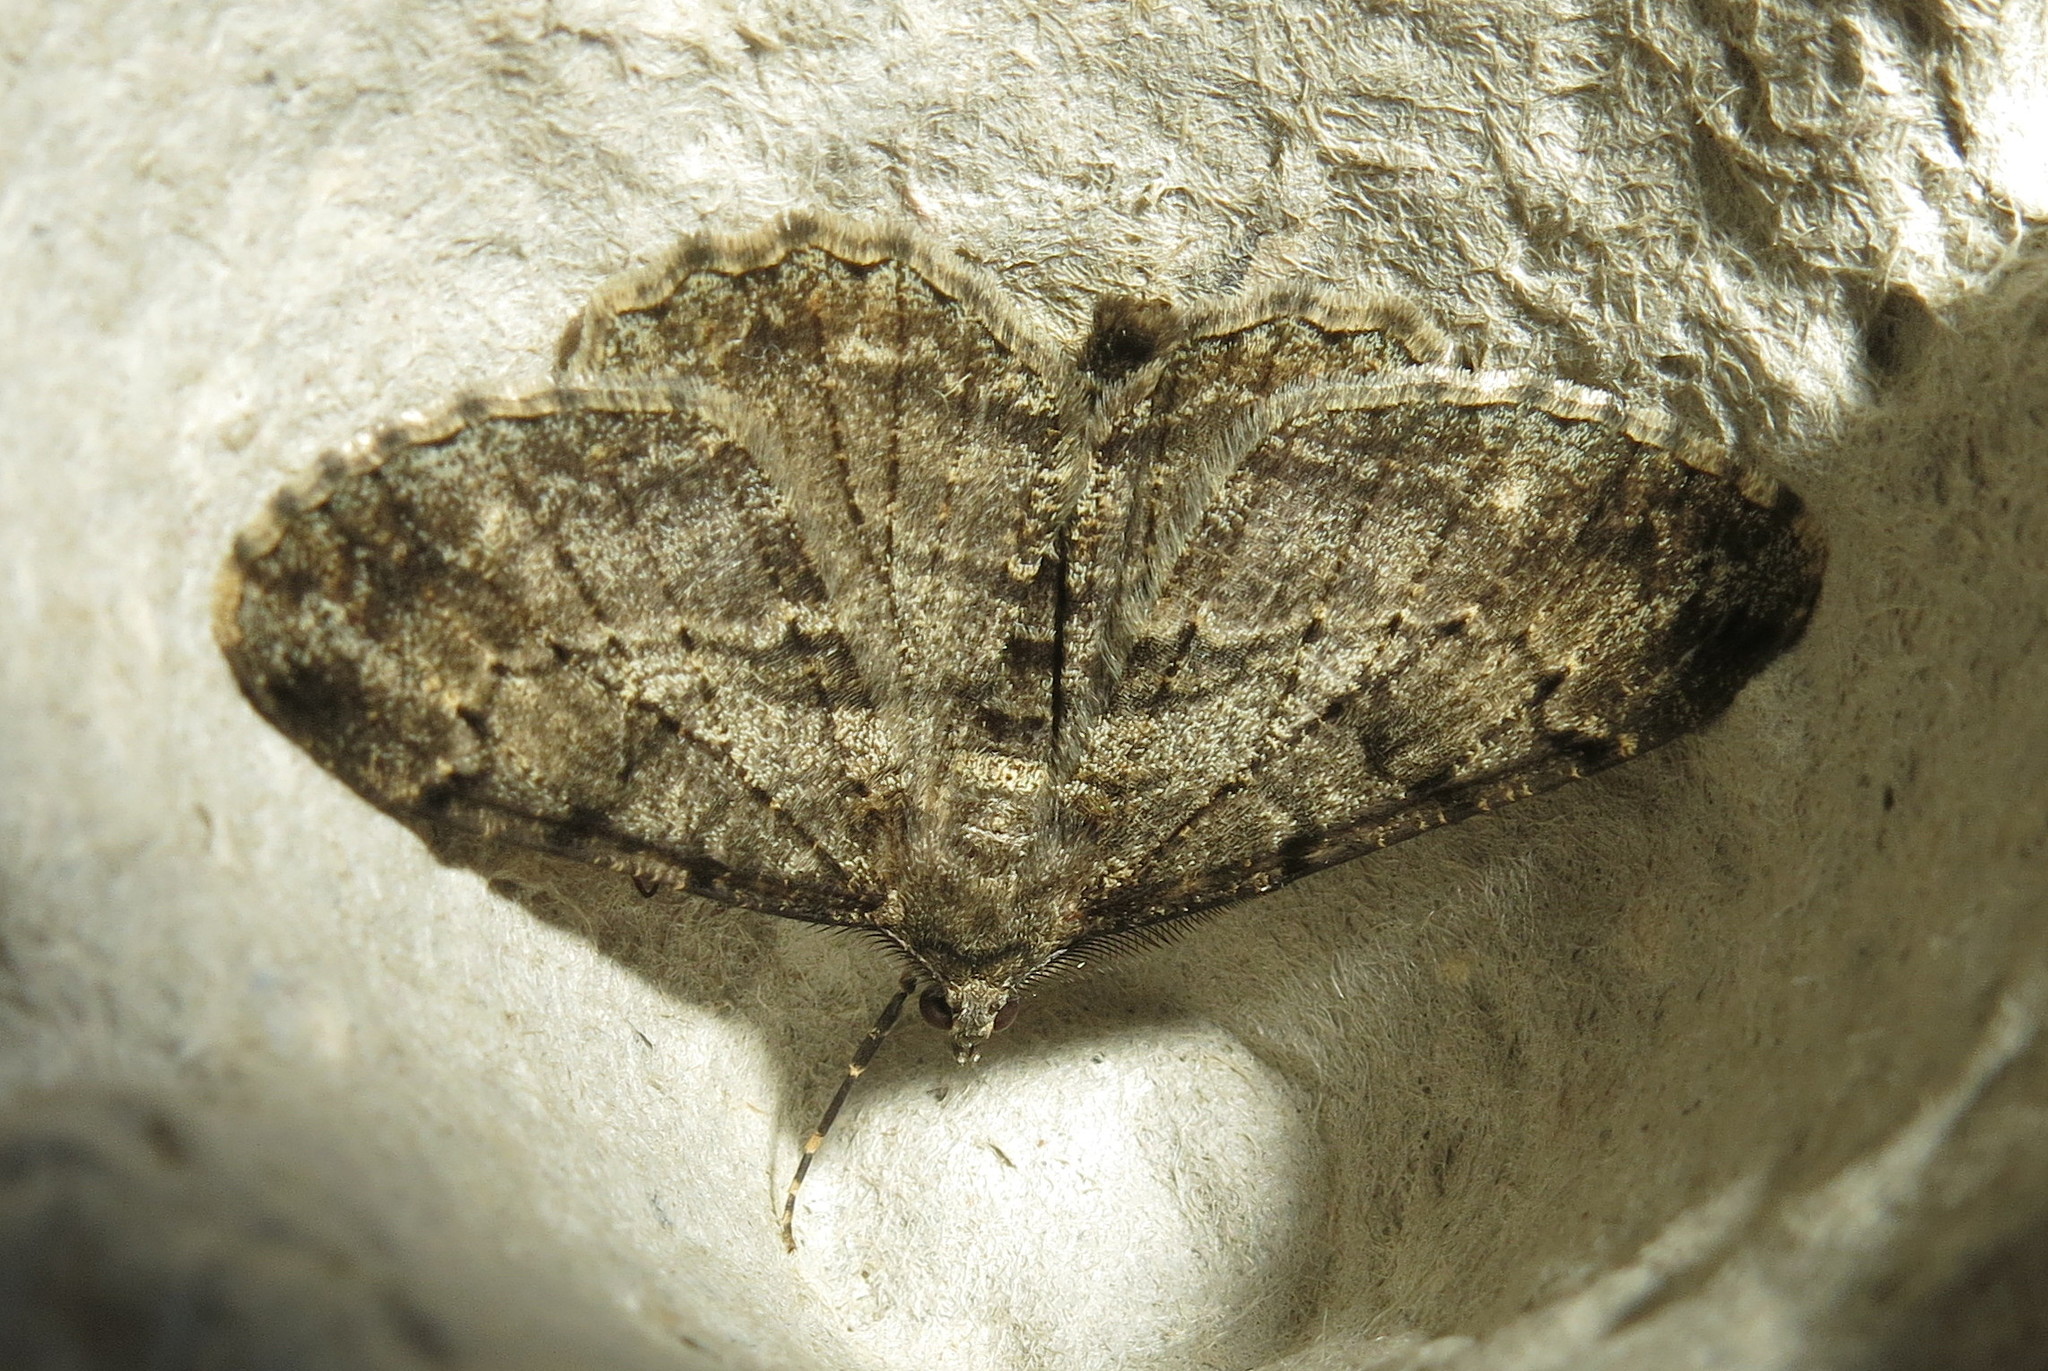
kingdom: Animalia
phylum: Arthropoda
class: Insecta
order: Lepidoptera
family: Geometridae
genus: Peribatodes
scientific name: Peribatodes rhomboidaria
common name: Willow beauty
